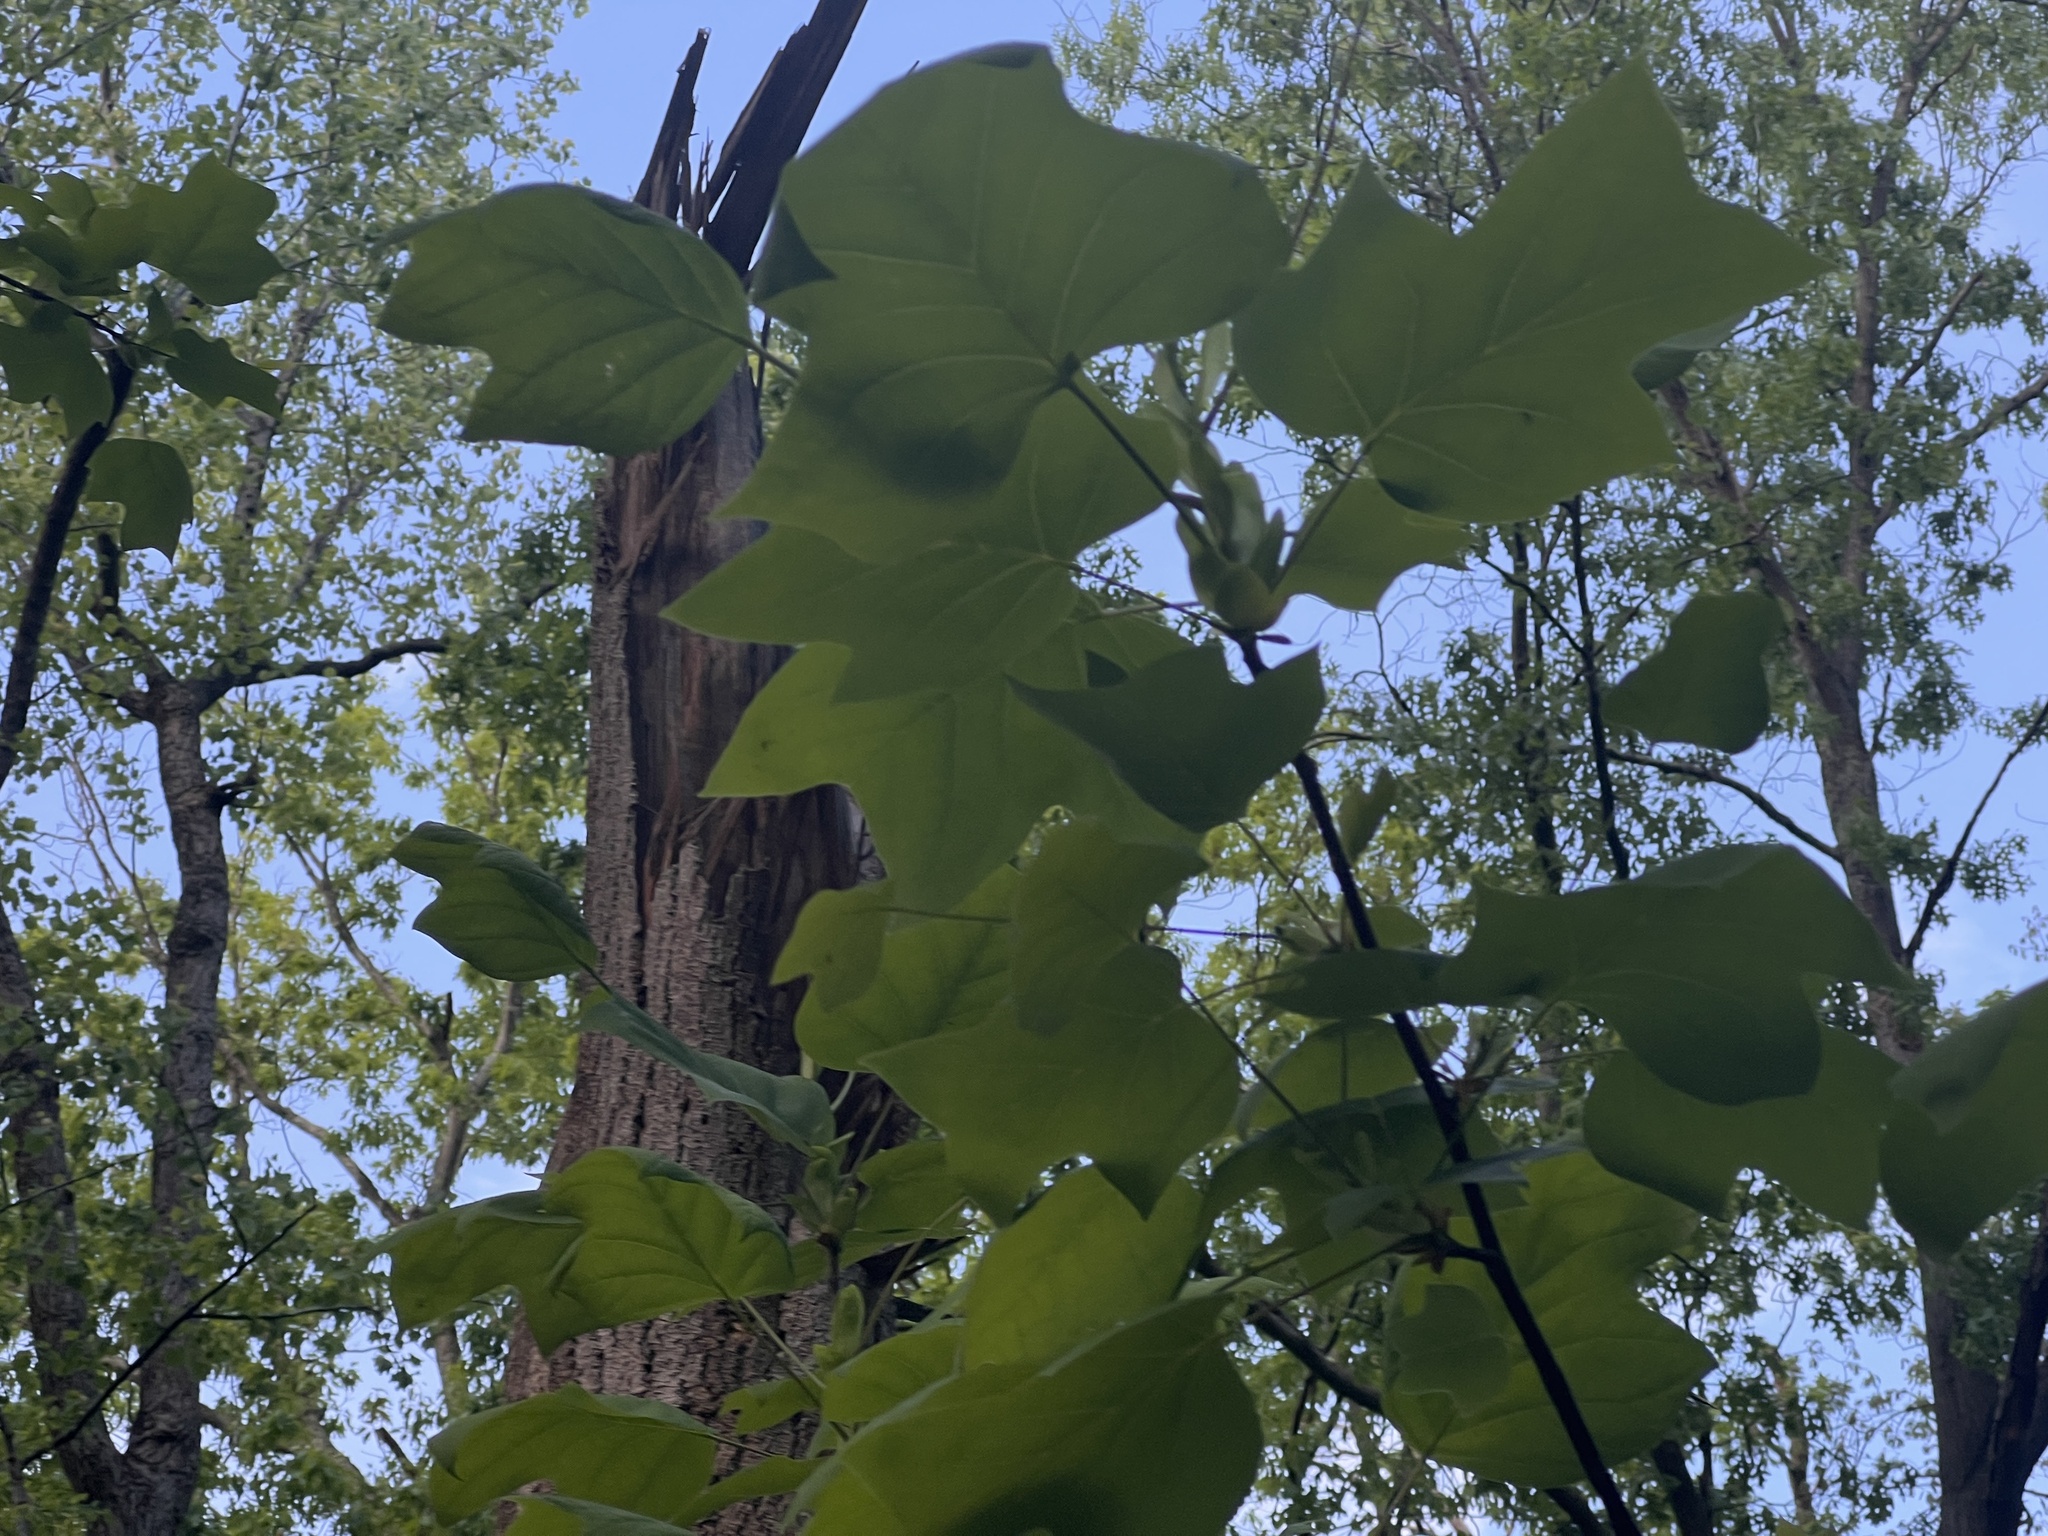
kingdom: Plantae
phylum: Tracheophyta
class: Magnoliopsida
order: Magnoliales
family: Magnoliaceae
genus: Liriodendron
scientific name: Liriodendron tulipifera
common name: Tulip tree
